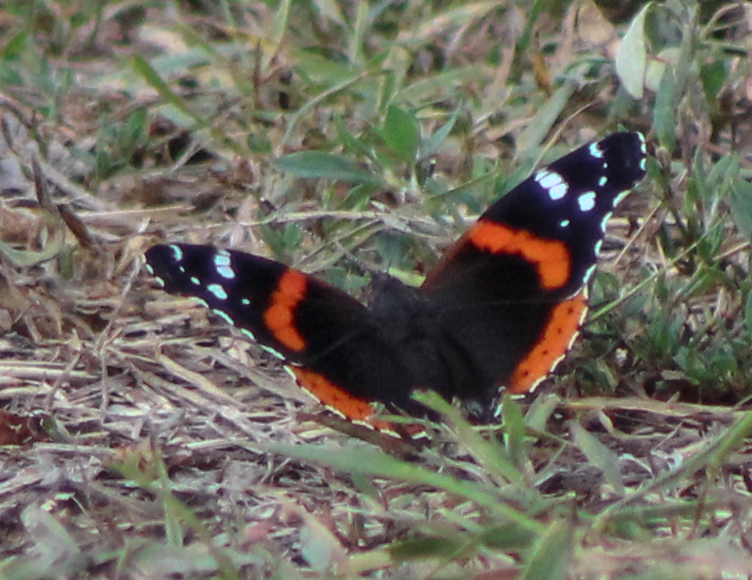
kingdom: Animalia
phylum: Arthropoda
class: Insecta
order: Lepidoptera
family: Nymphalidae
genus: Vanessa
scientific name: Vanessa atalanta
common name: Red admiral
